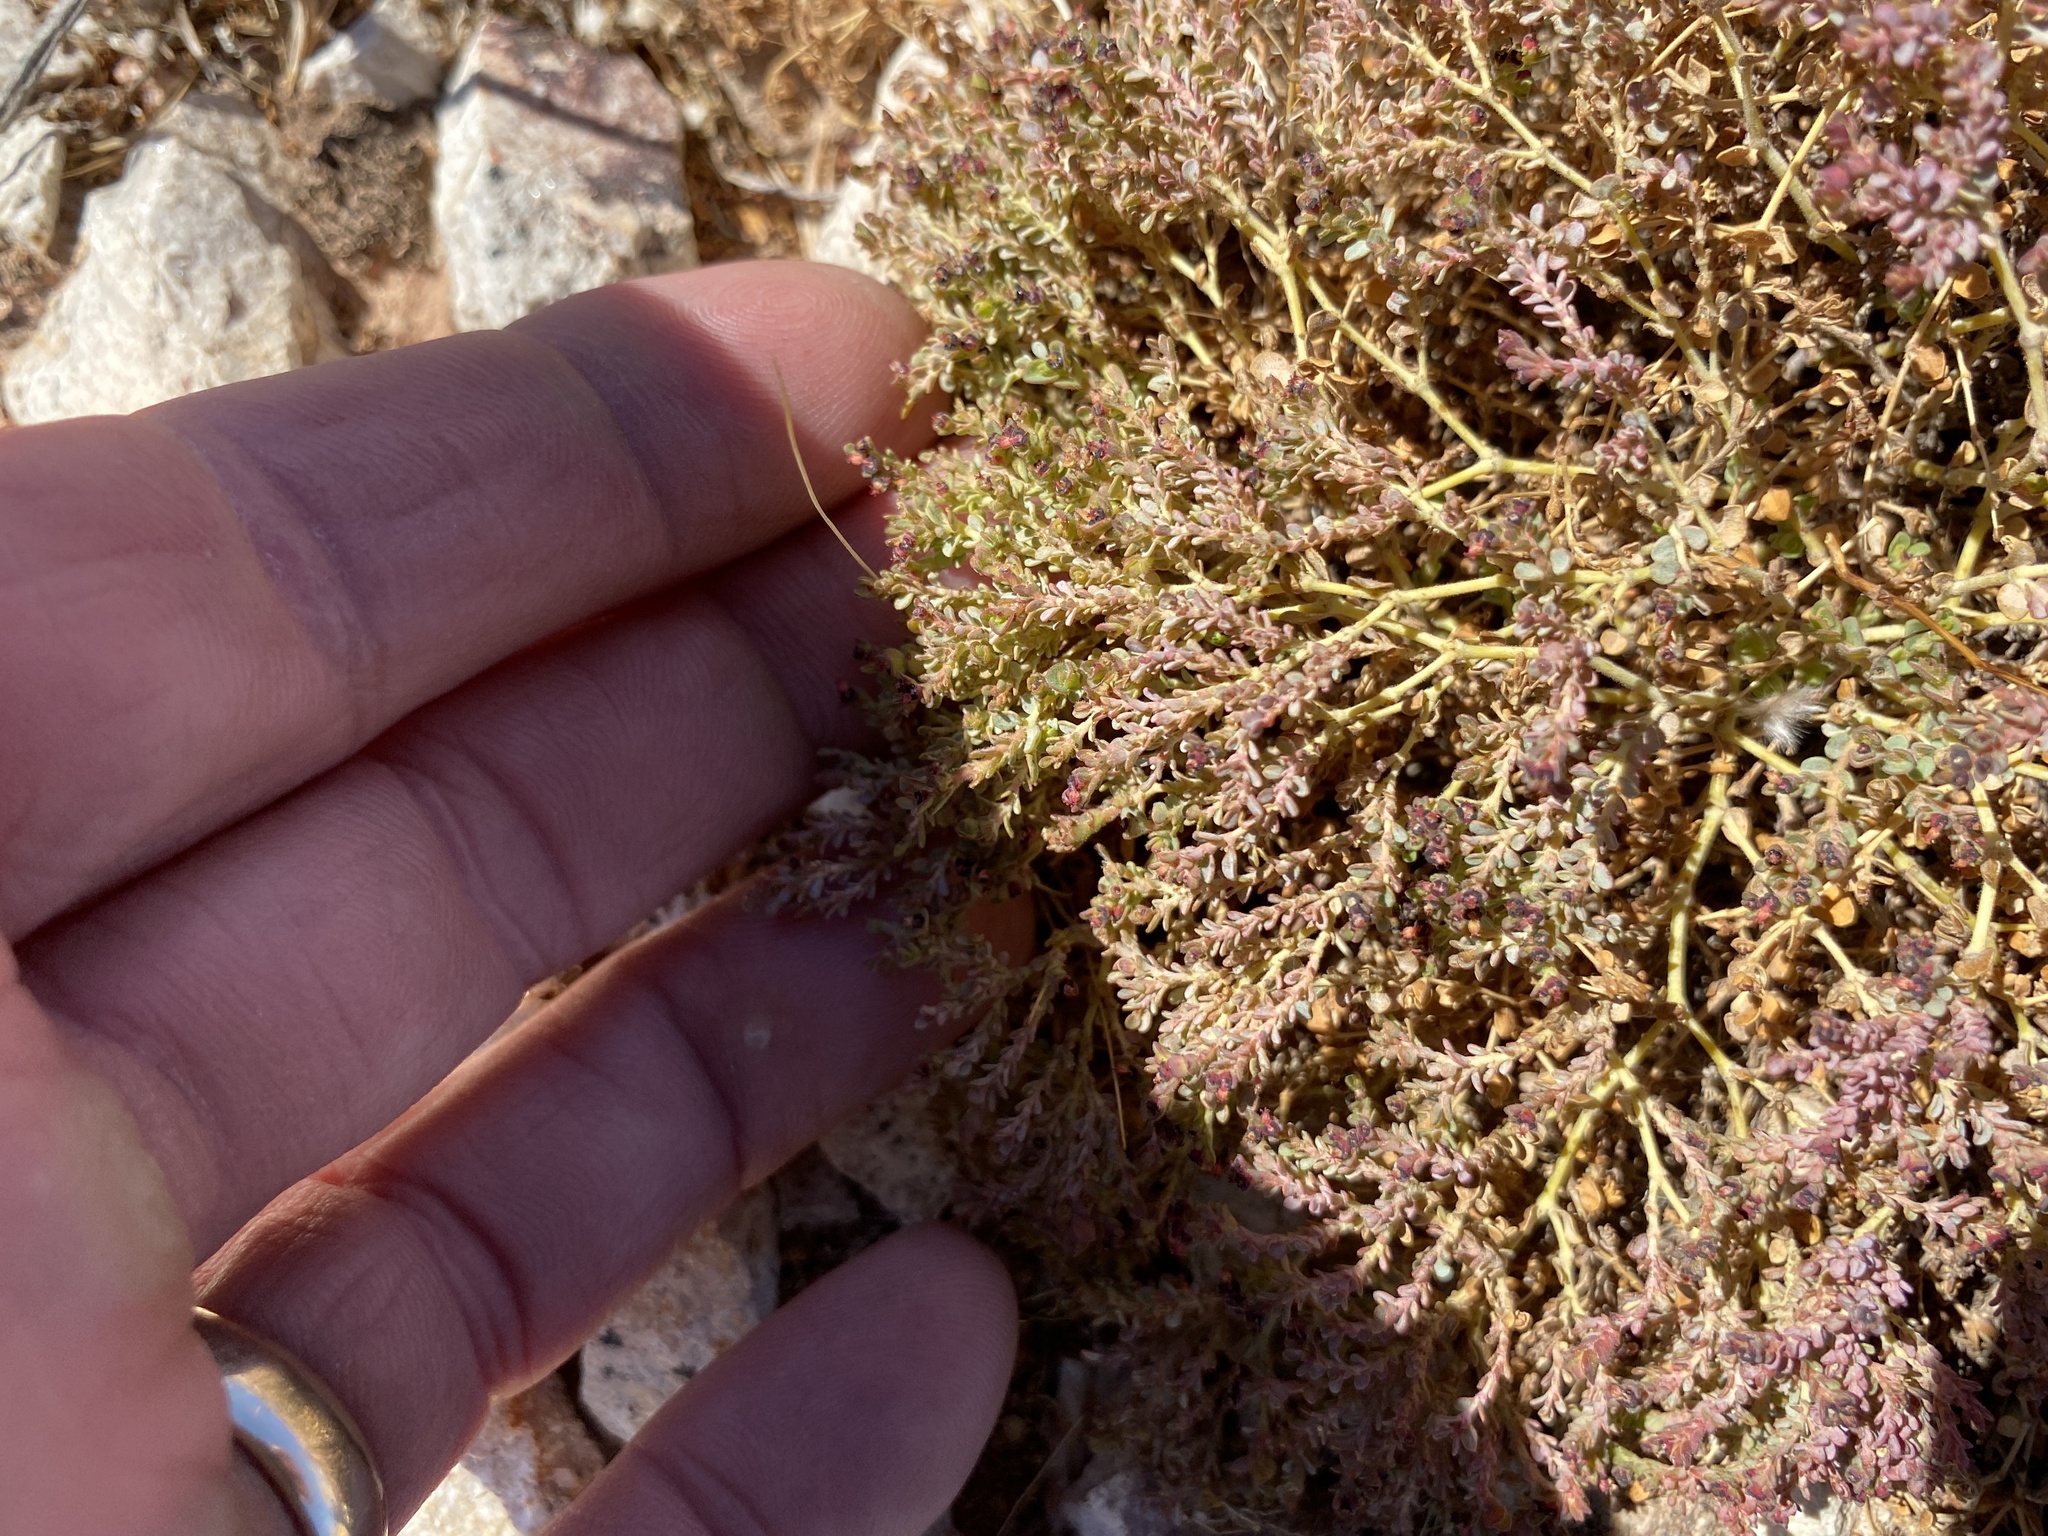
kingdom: Plantae
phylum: Tracheophyta
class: Magnoliopsida
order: Malpighiales
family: Euphorbiaceae
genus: Euphorbia
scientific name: Euphorbia polycarpa
